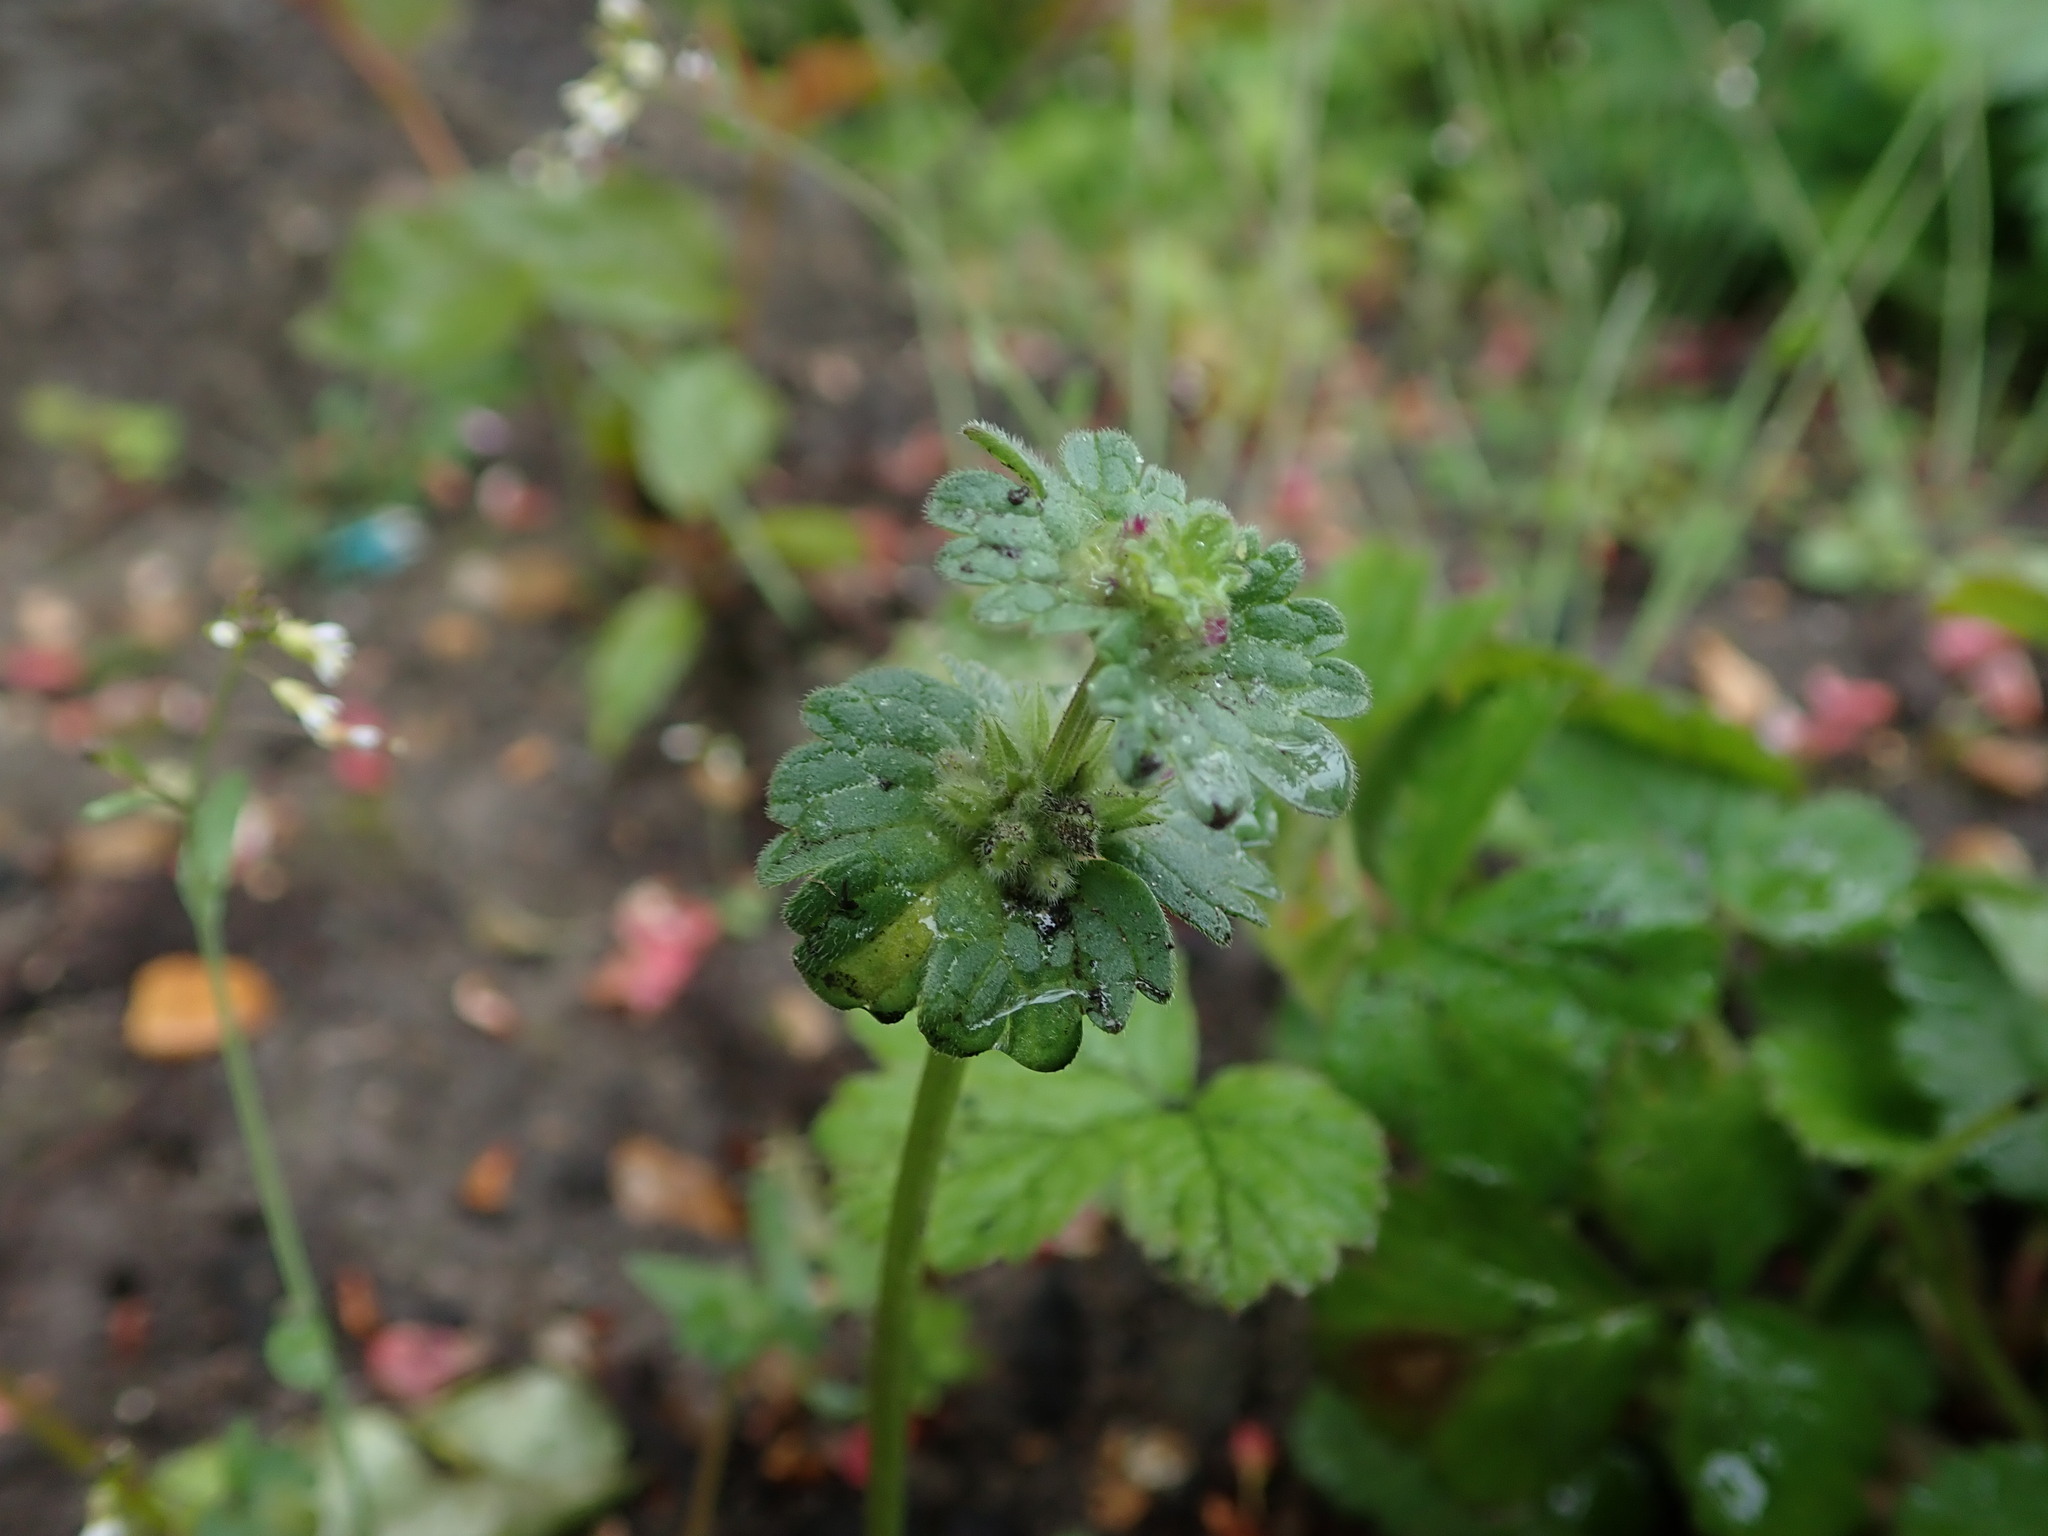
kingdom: Plantae
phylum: Tracheophyta
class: Magnoliopsida
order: Lamiales
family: Lamiaceae
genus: Lamium
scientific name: Lamium amplexicaule
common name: Henbit dead-nettle
